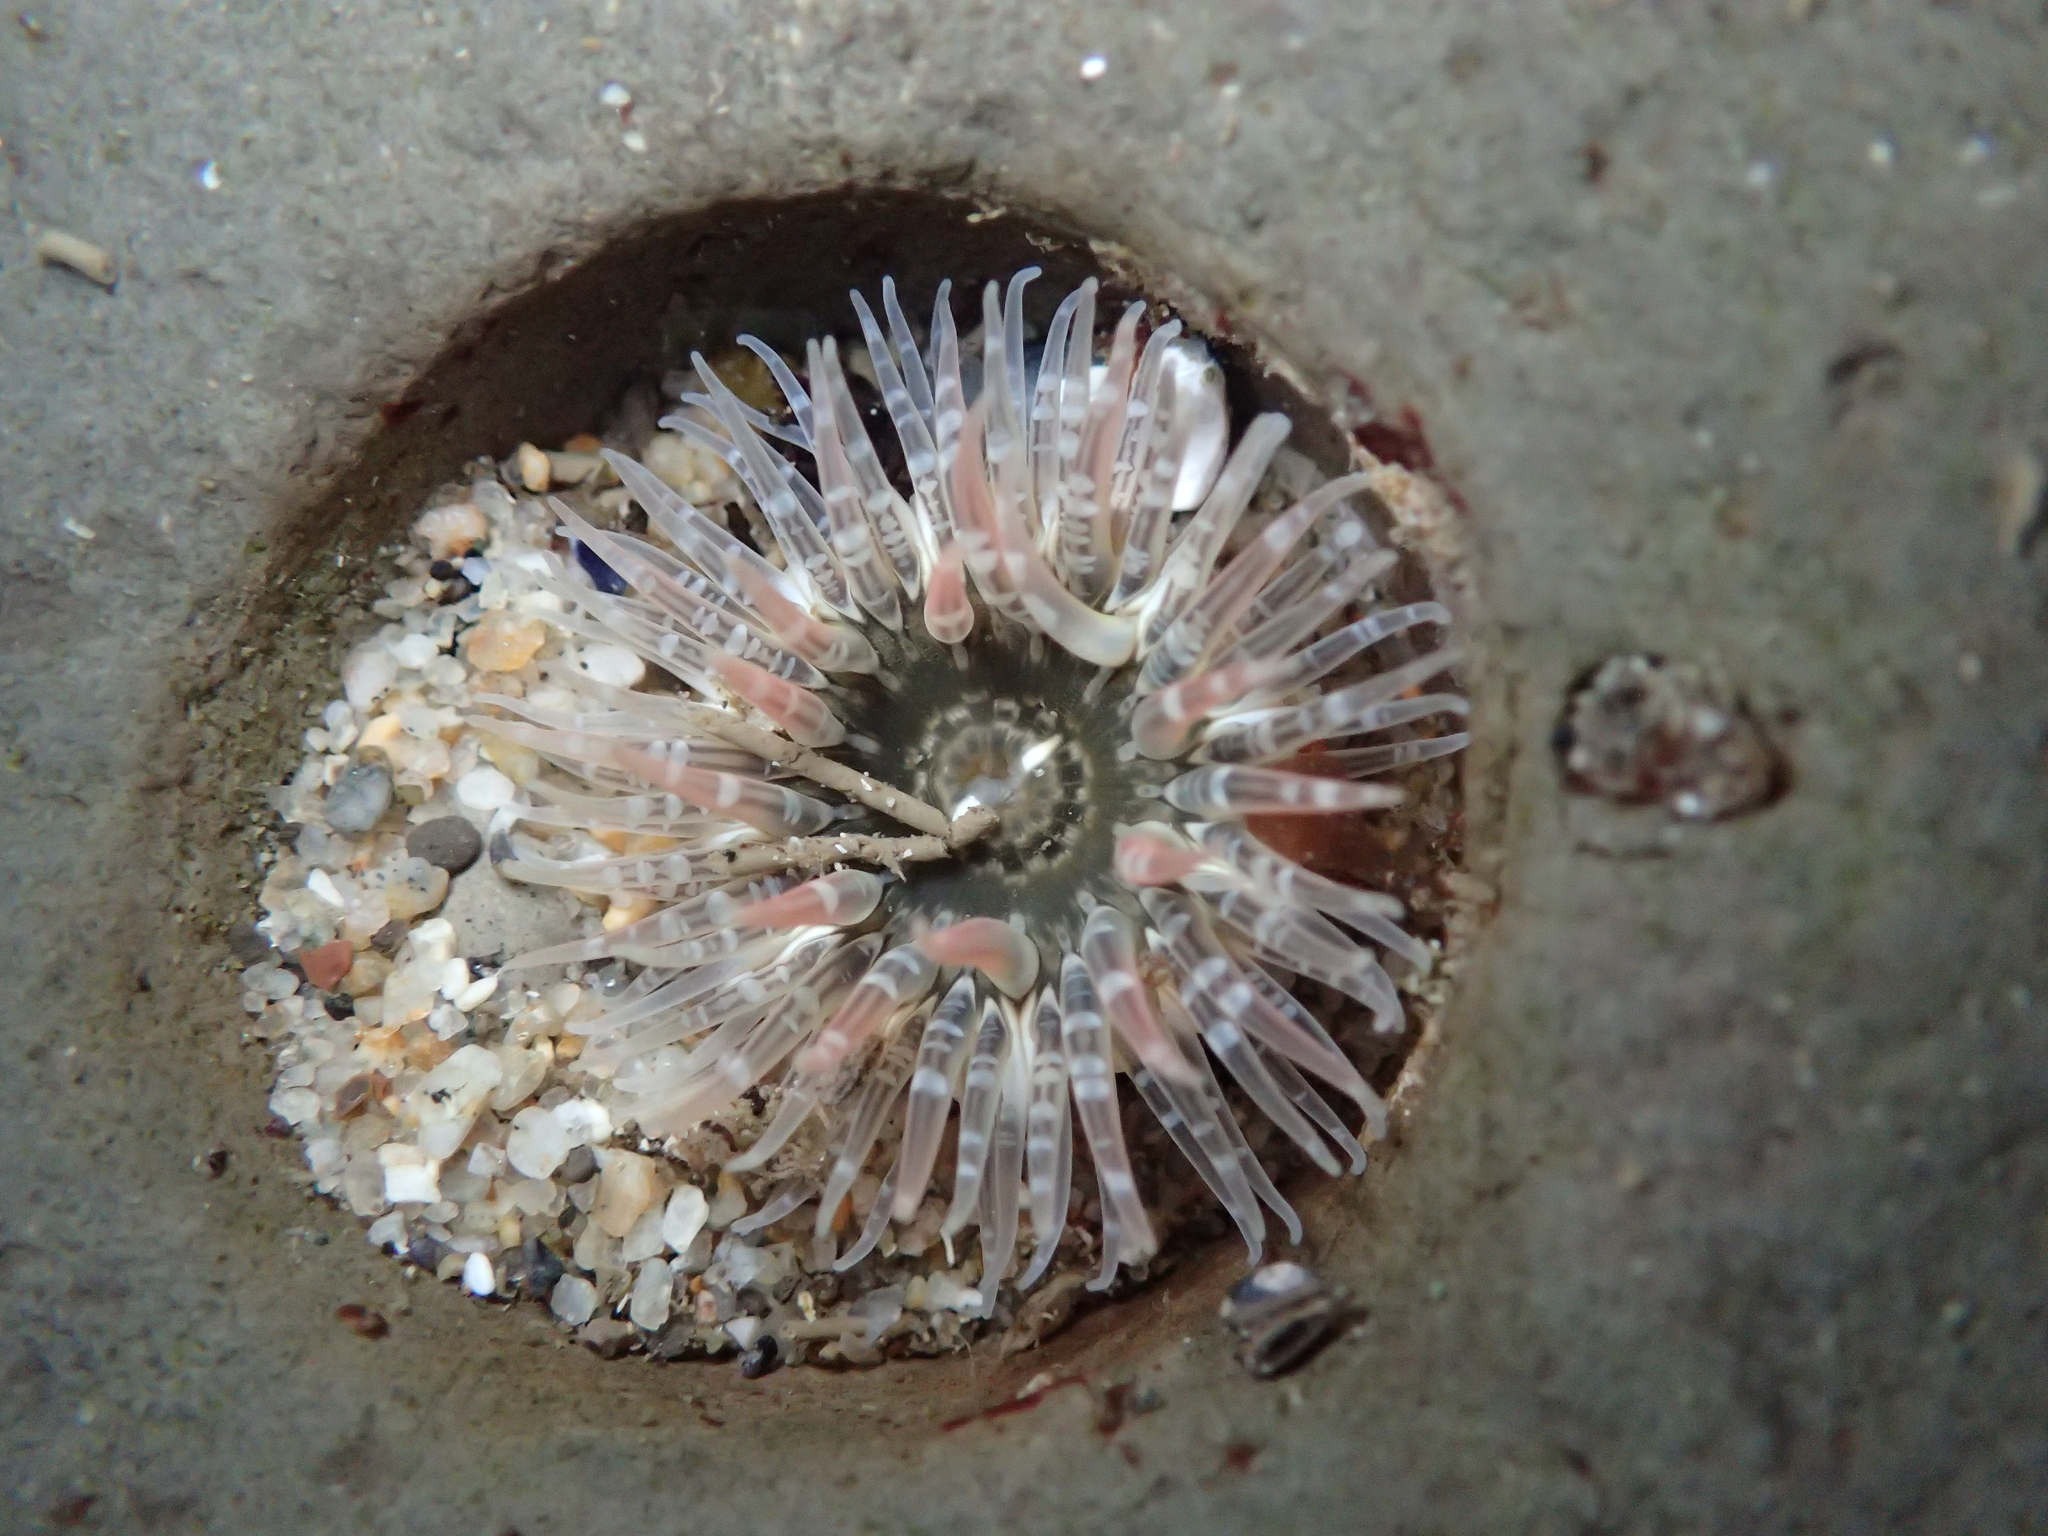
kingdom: Animalia
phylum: Cnidaria
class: Anthozoa
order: Actiniaria
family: Actiniidae
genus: Anthopleura
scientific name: Anthopleura artemisia
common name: Buried sea anemone
